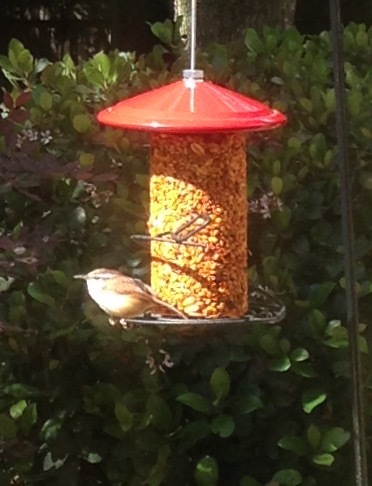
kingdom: Animalia
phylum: Chordata
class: Aves
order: Passeriformes
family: Troglodytidae
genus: Thryothorus
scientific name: Thryothorus ludovicianus
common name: Carolina wren
